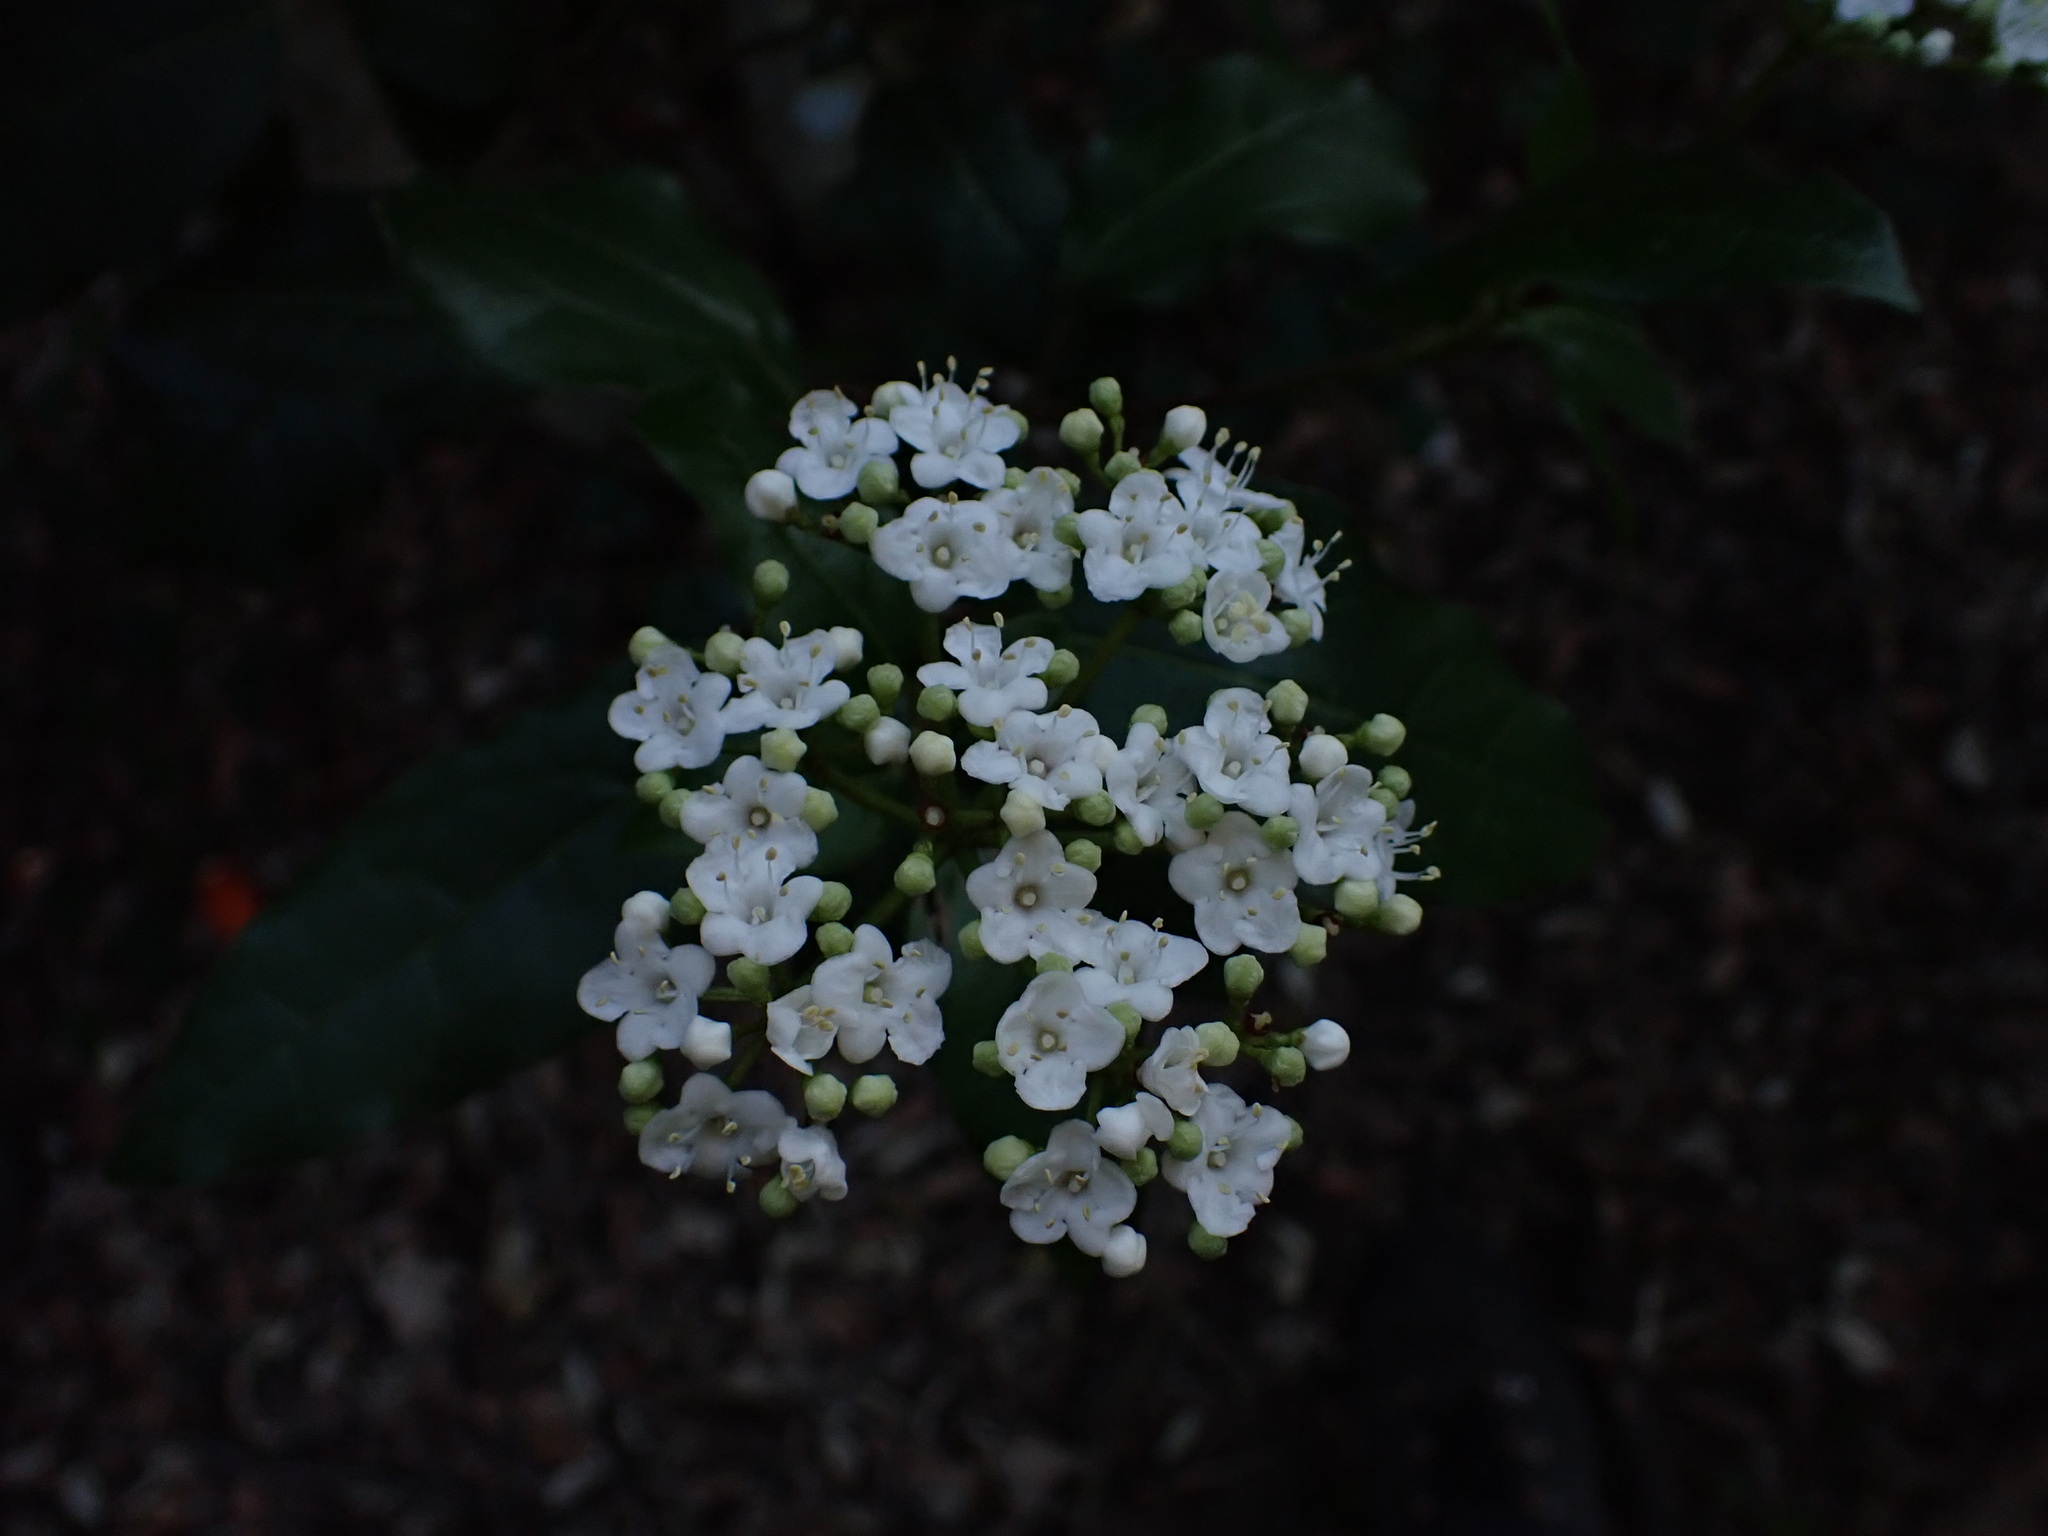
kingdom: Plantae
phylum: Tracheophyta
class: Magnoliopsida
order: Dipsacales
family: Viburnaceae
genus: Viburnum
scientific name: Viburnum tinus
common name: Laurustinus
